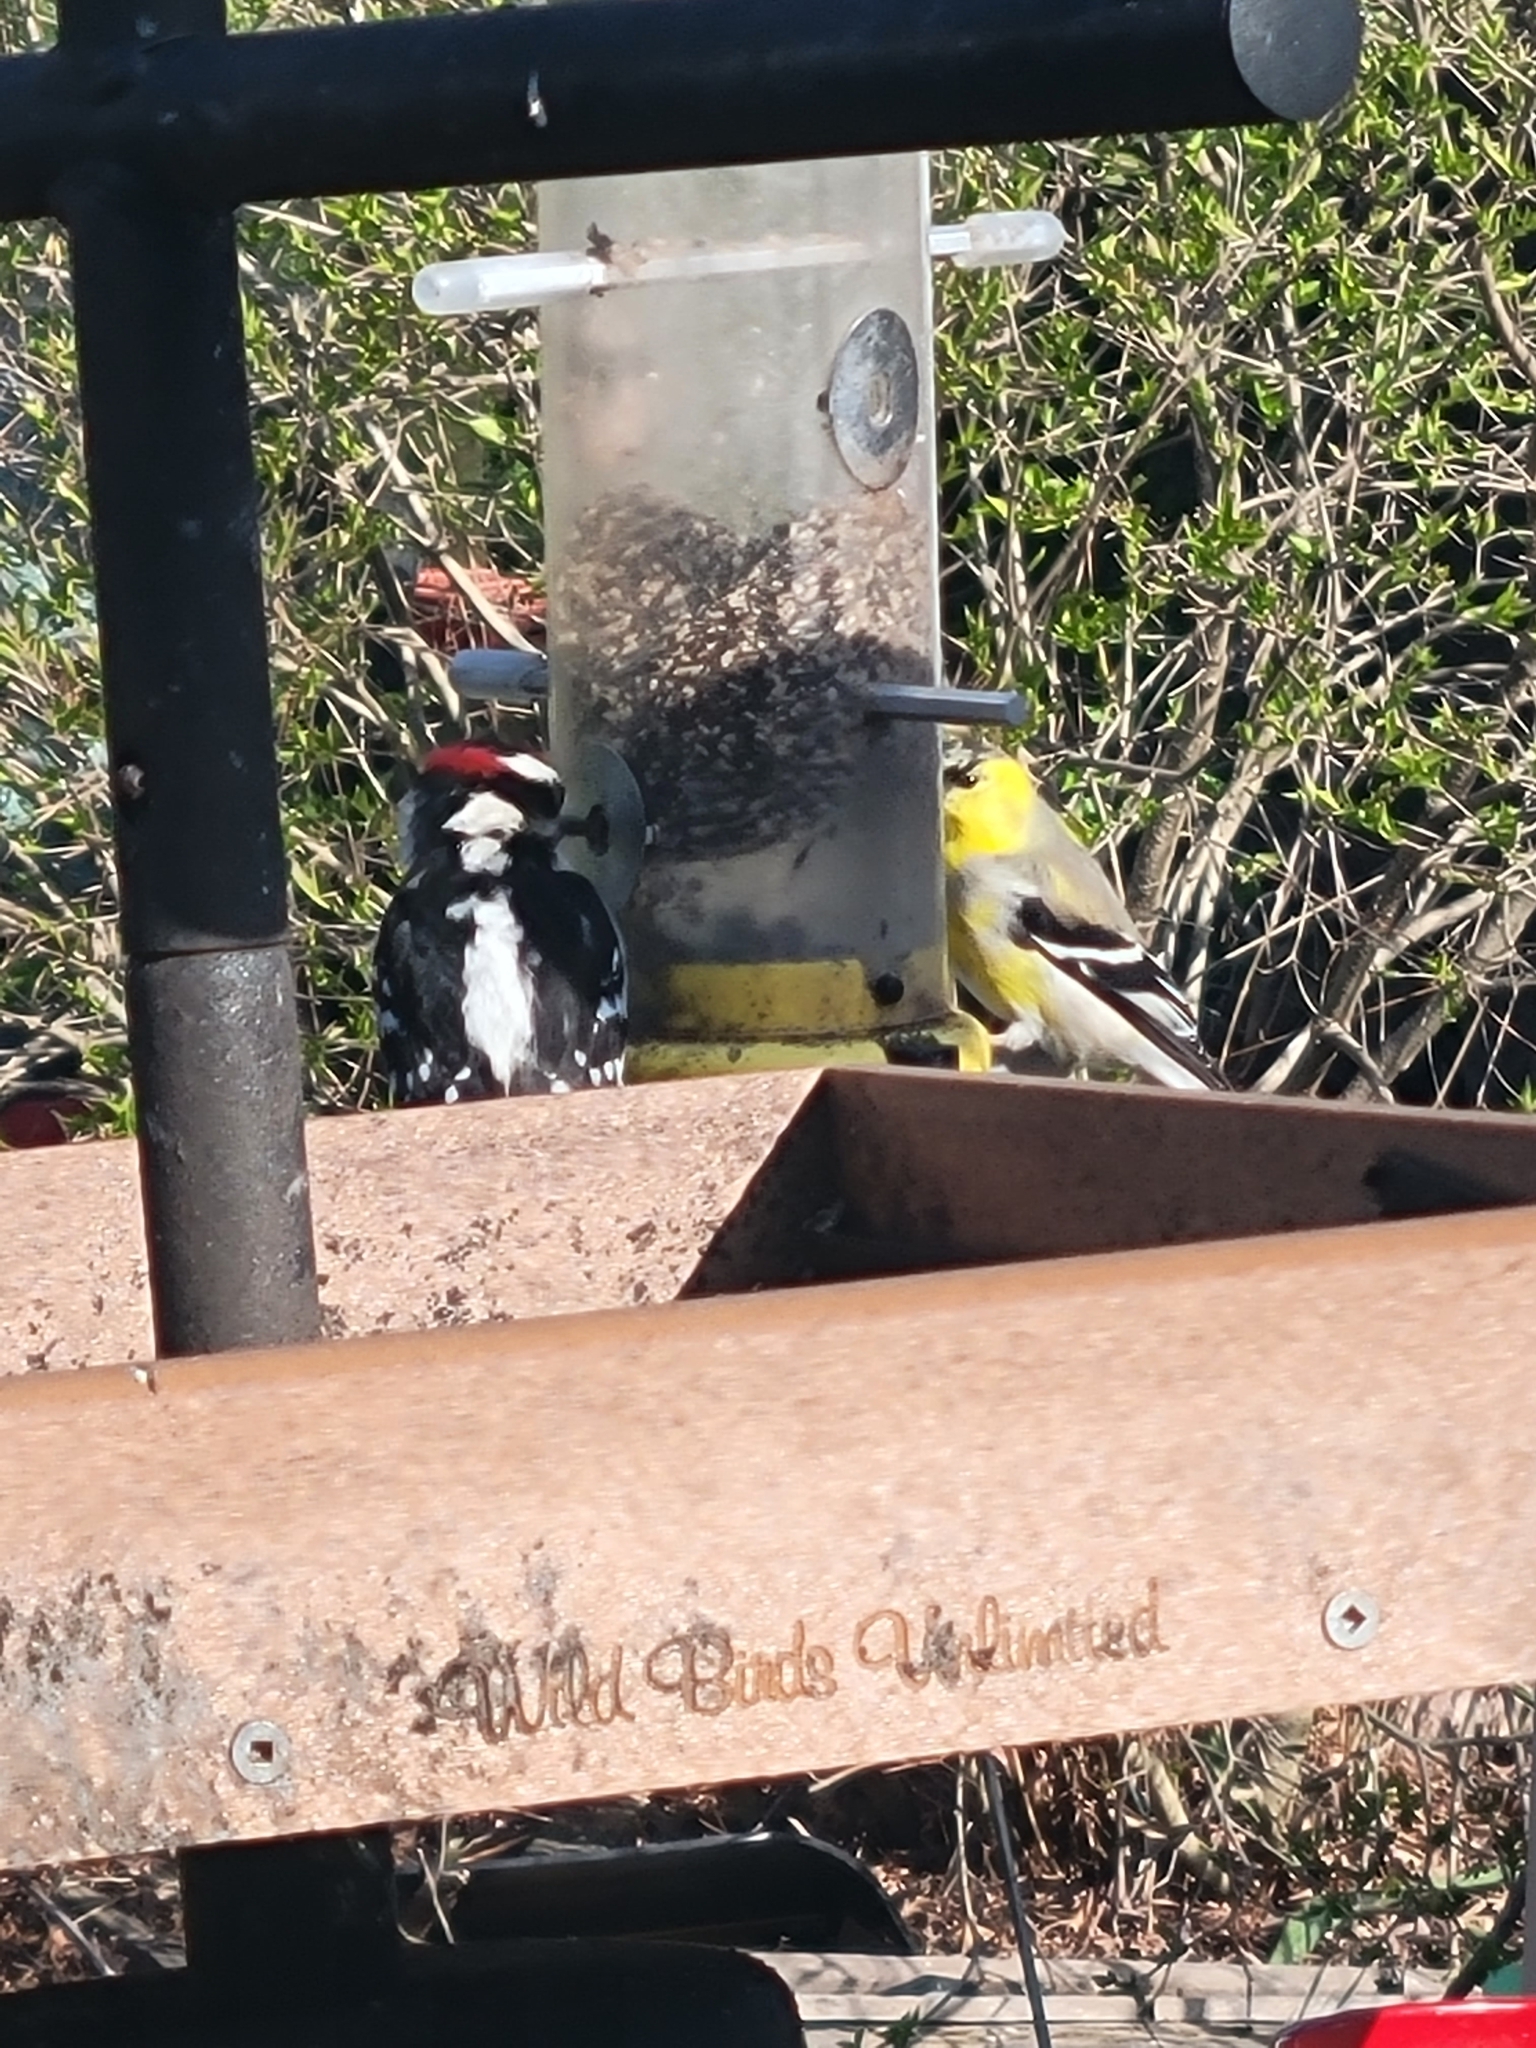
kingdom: Animalia
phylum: Chordata
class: Aves
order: Passeriformes
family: Fringillidae
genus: Spinus
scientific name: Spinus tristis
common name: American goldfinch
